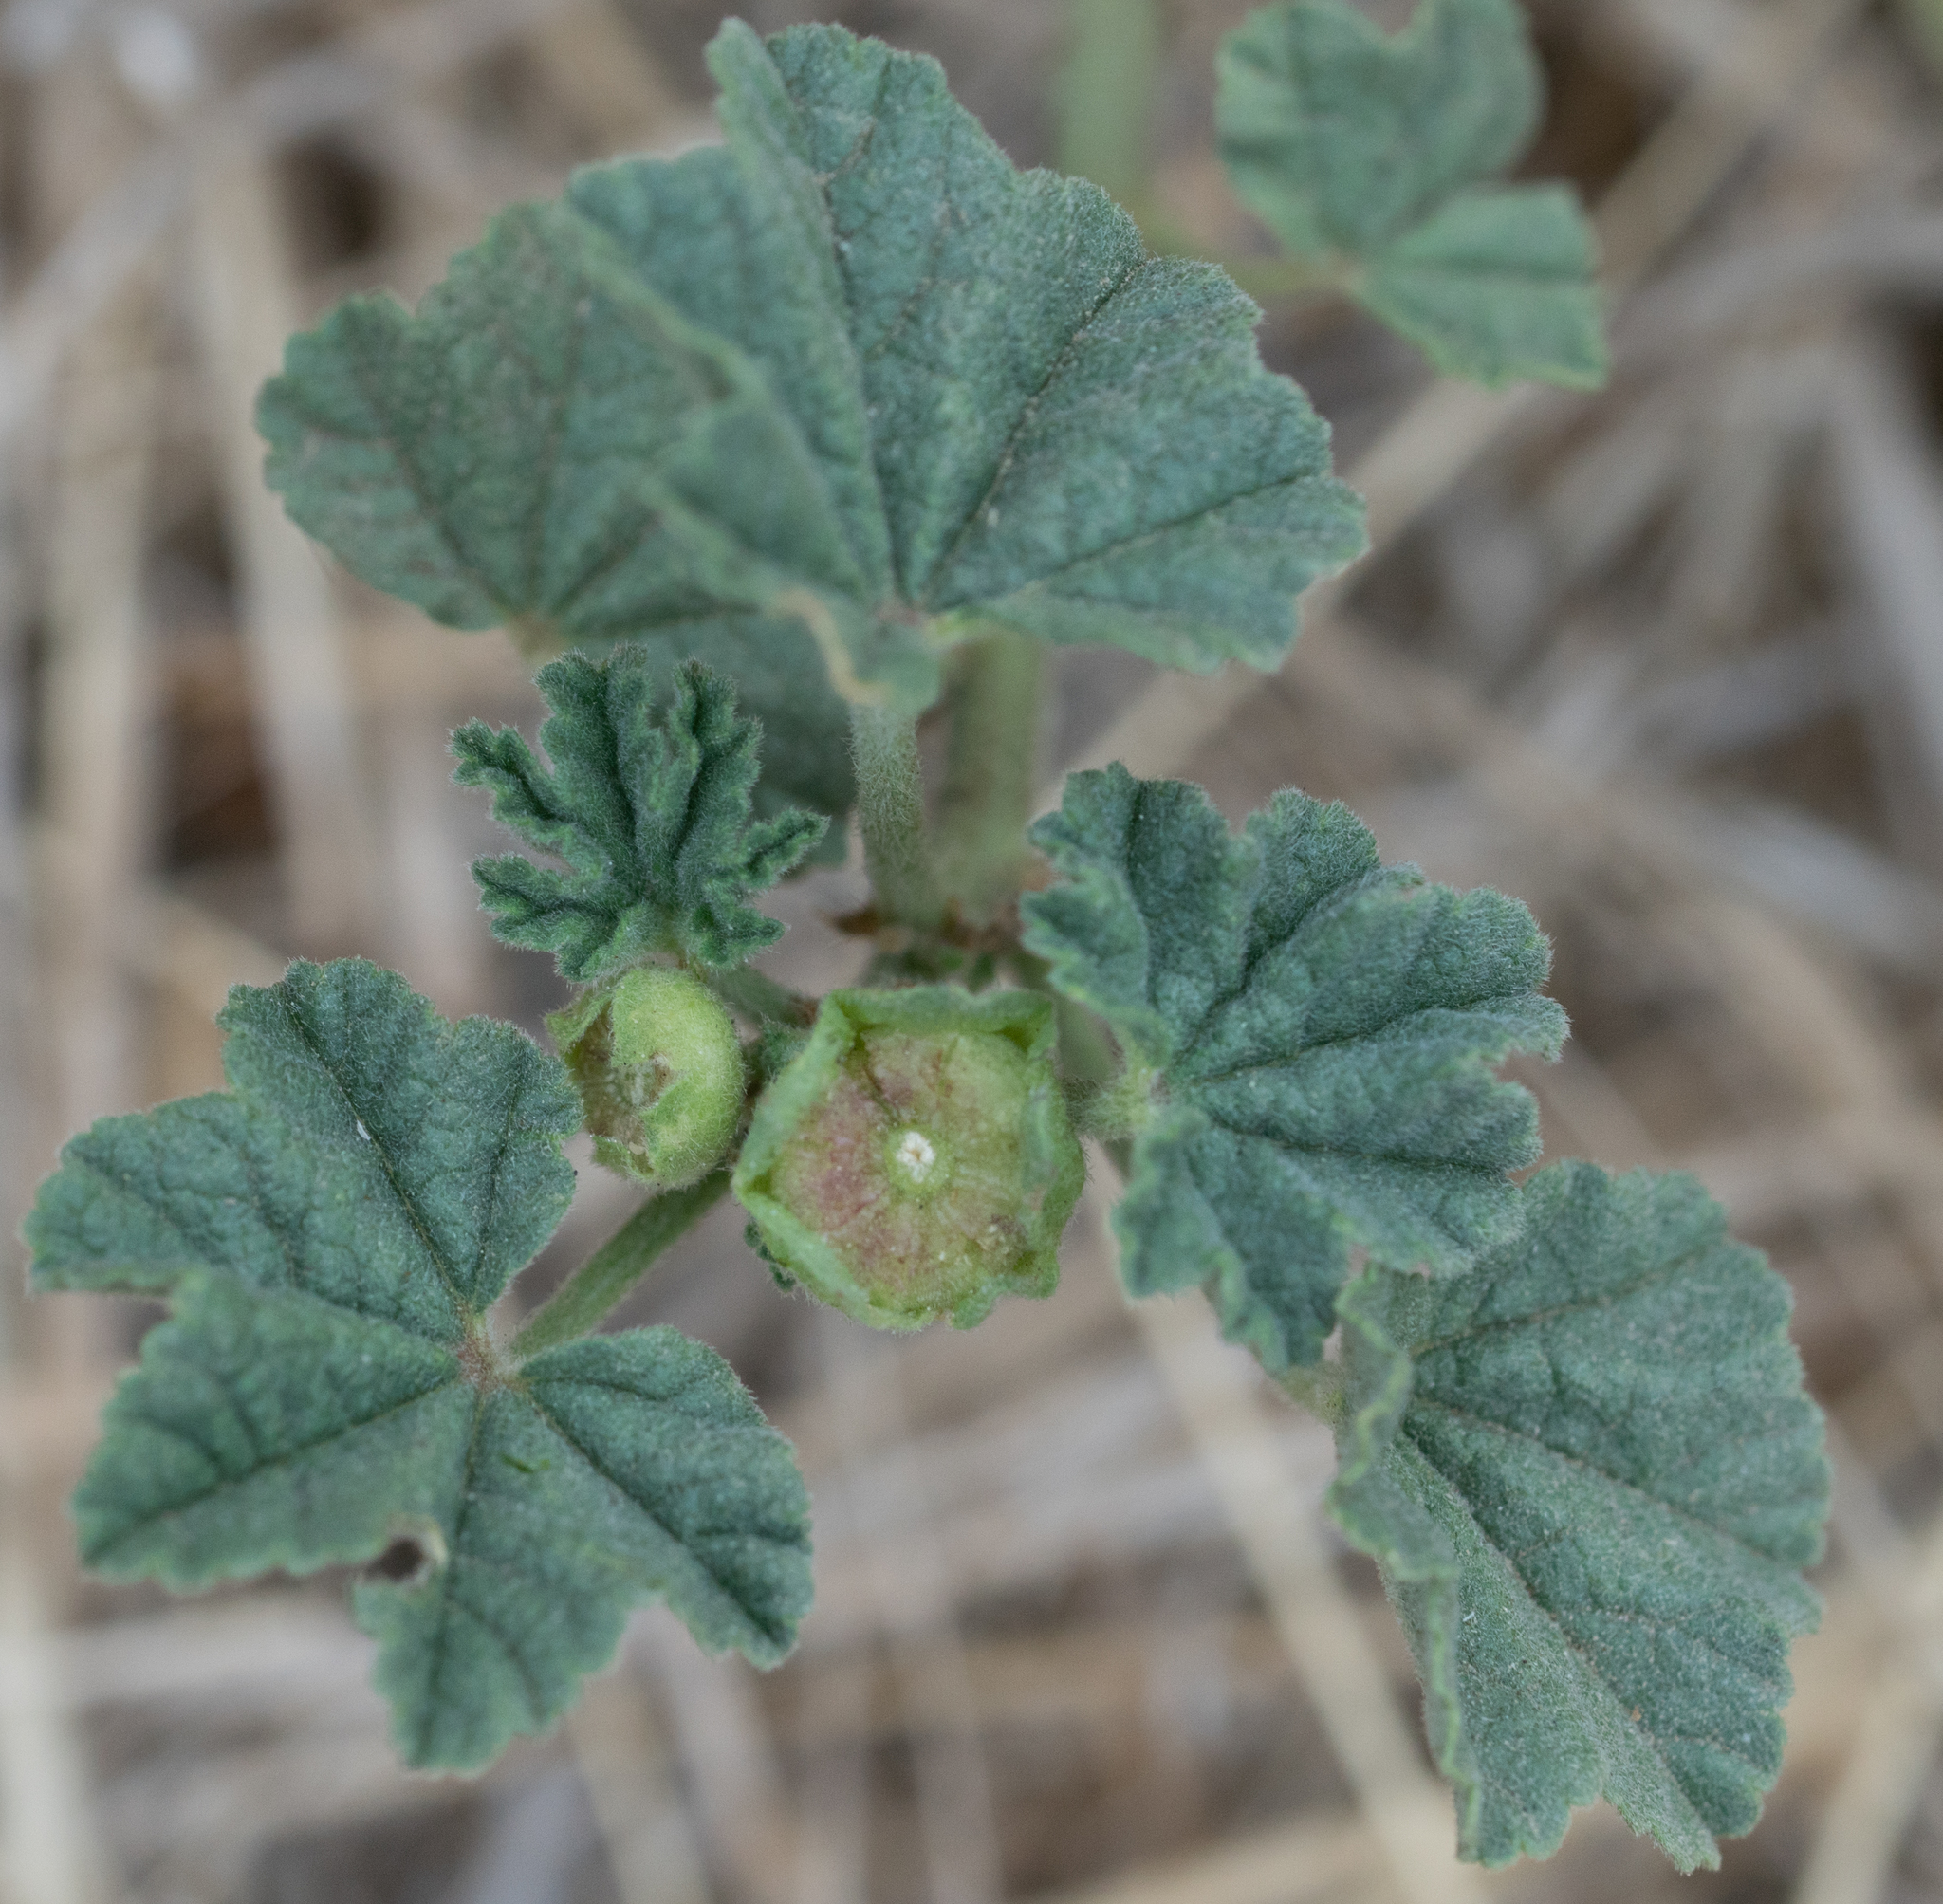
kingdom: Plantae
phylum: Tracheophyta
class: Magnoliopsida
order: Malvales
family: Malvaceae
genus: Malva
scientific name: Malva parviflora
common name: Least mallow
